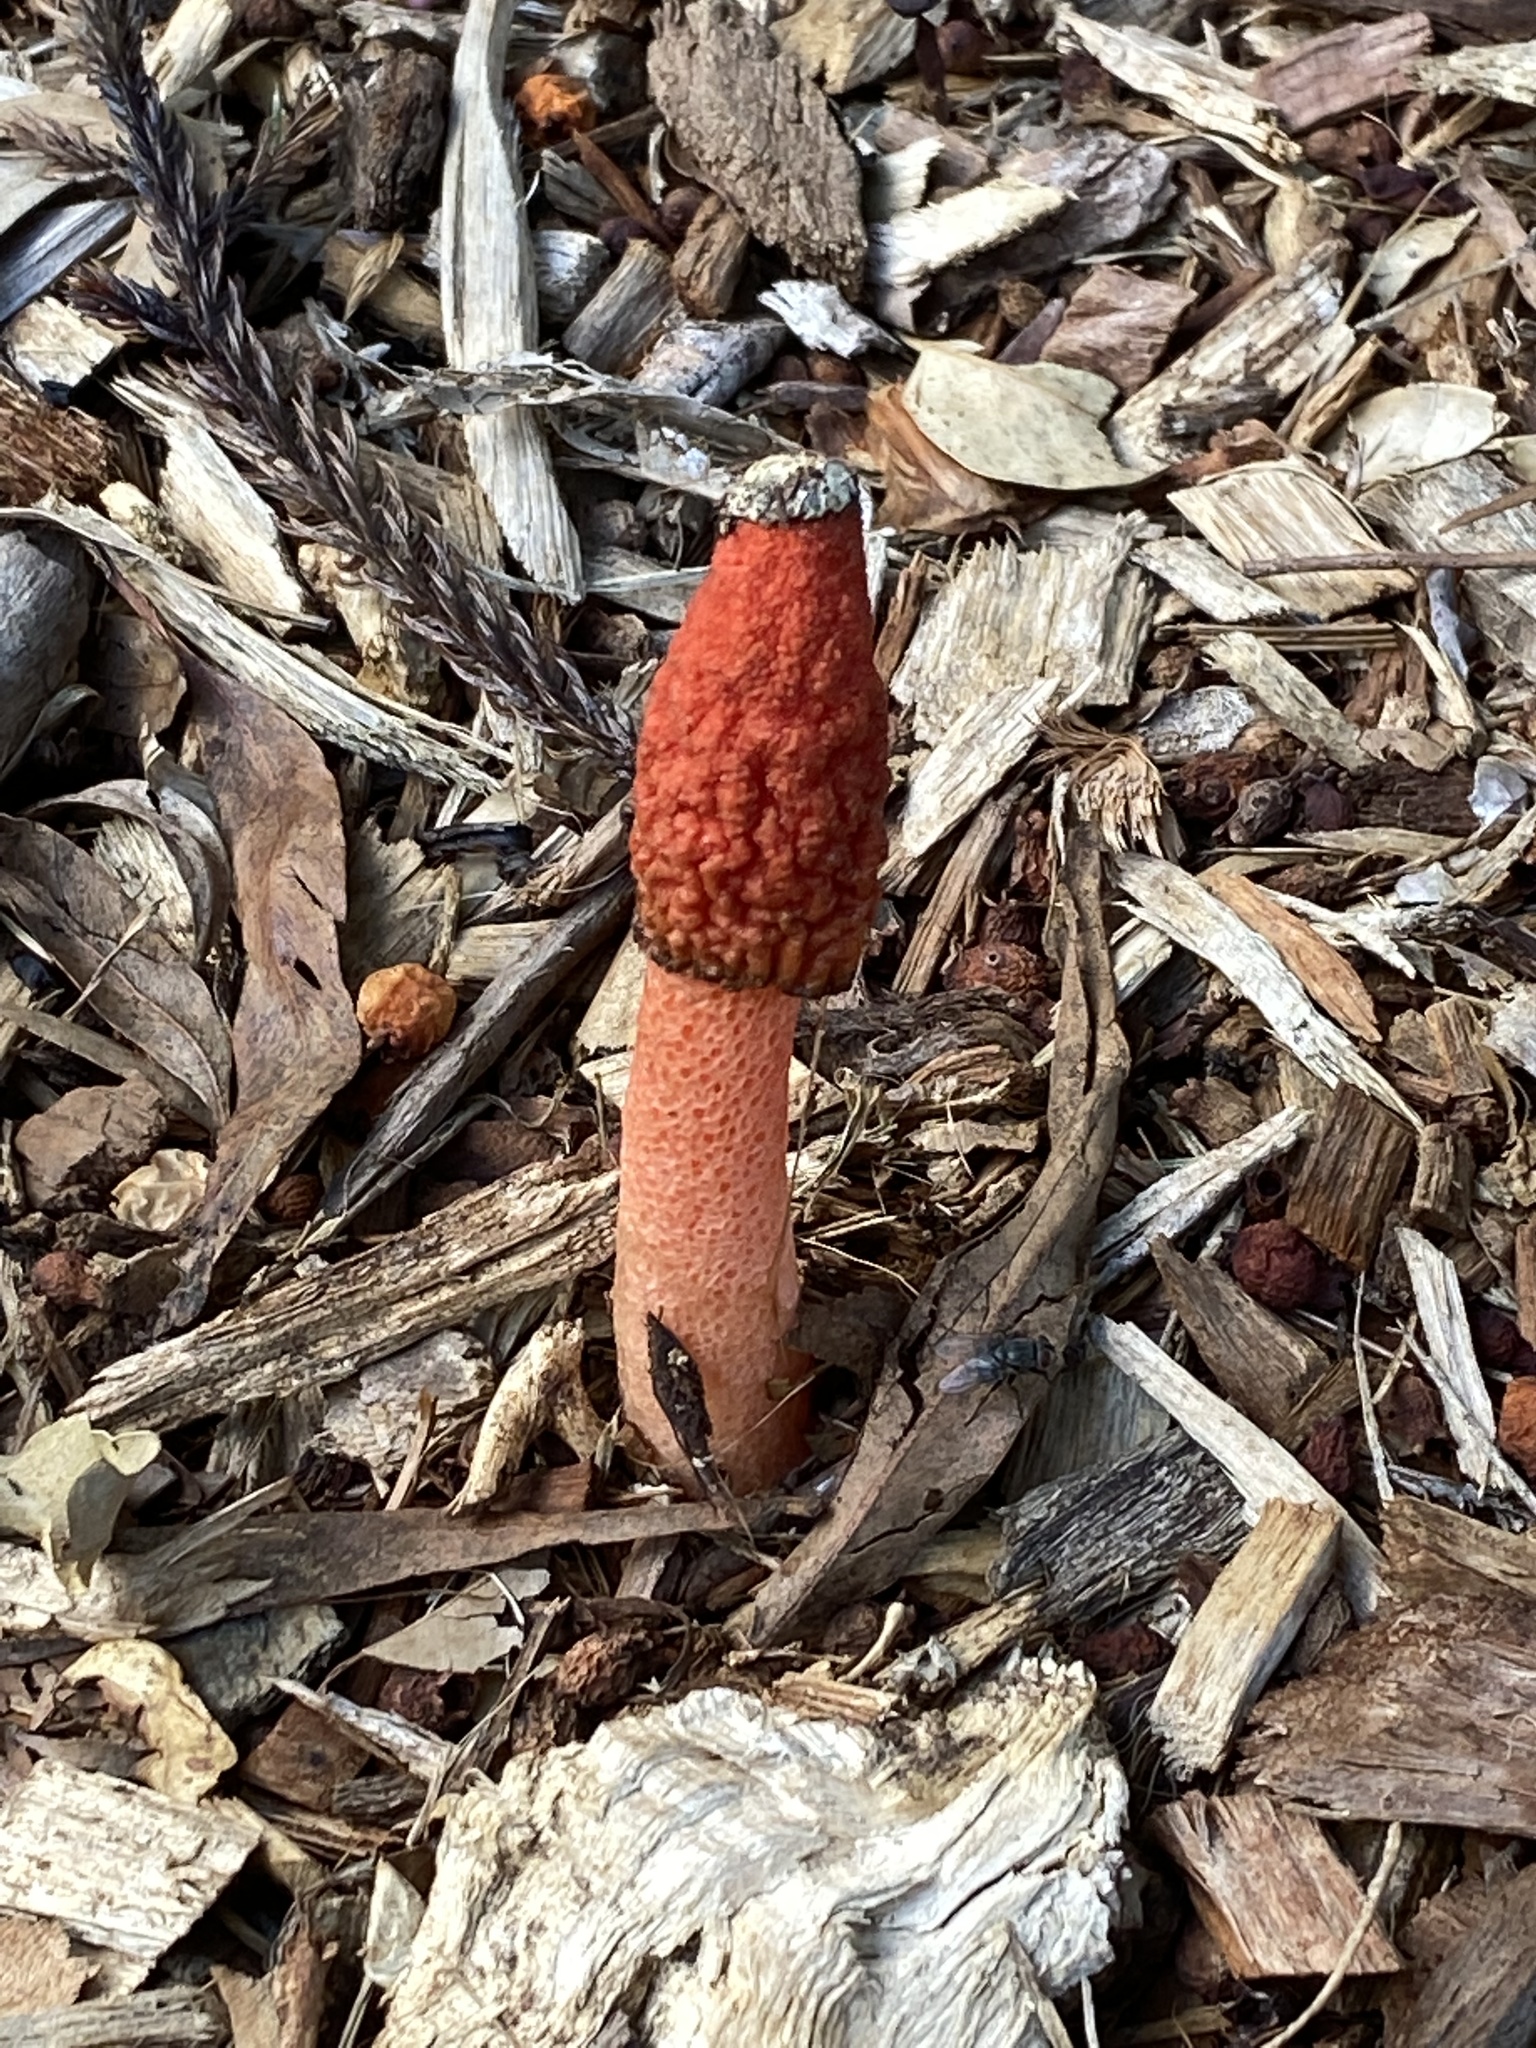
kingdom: Fungi
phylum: Basidiomycota
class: Agaricomycetes
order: Phallales
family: Phallaceae
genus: Phallus
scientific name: Phallus rubicundus
